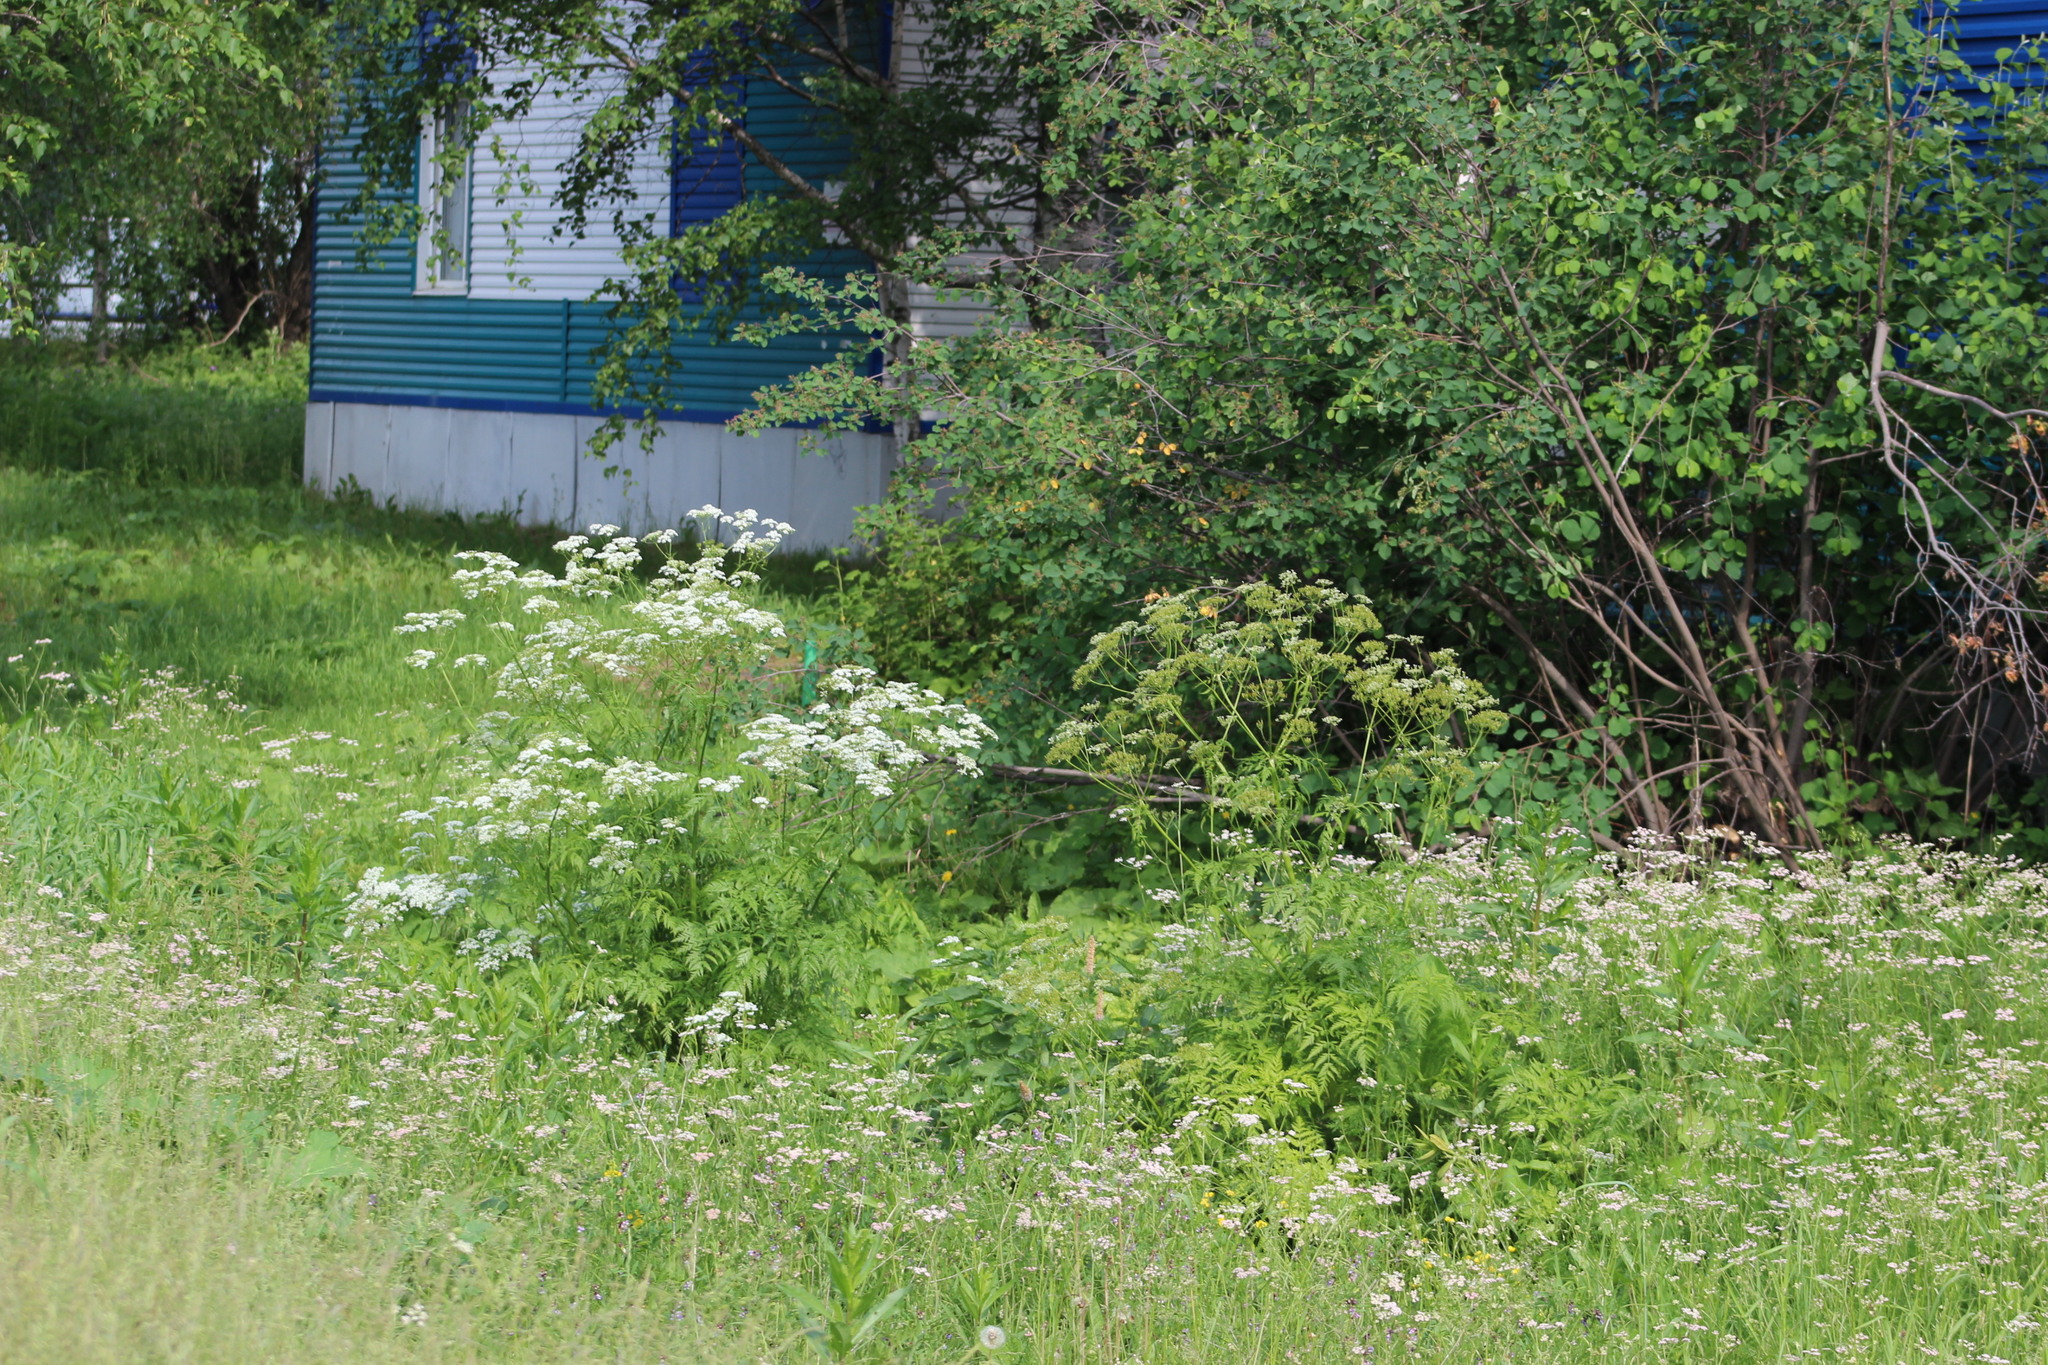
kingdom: Plantae
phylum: Tracheophyta
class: Magnoliopsida
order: Apiales
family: Apiaceae
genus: Carum
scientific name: Carum carvi
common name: Caraway
